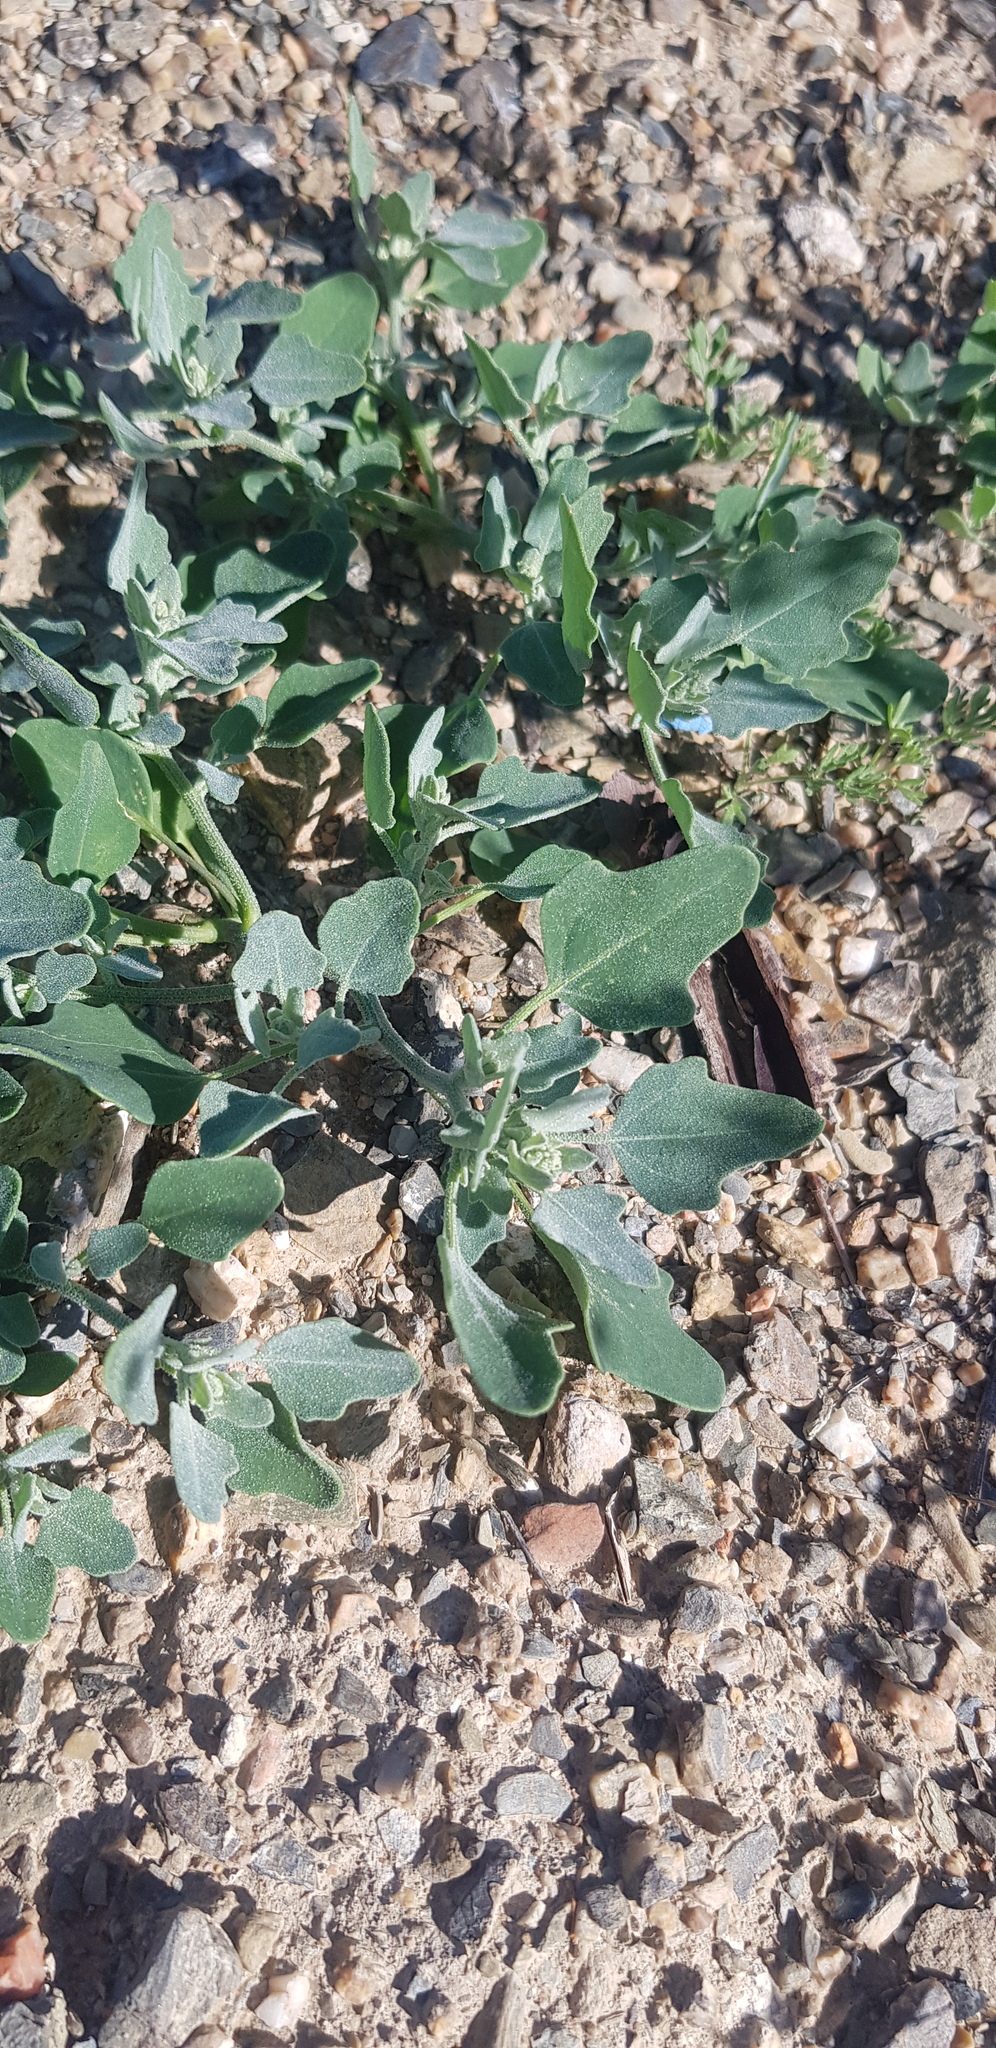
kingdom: Plantae
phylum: Tracheophyta
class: Magnoliopsida
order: Caryophyllales
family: Amaranthaceae
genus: Chenopodium
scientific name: Chenopodium karoi
